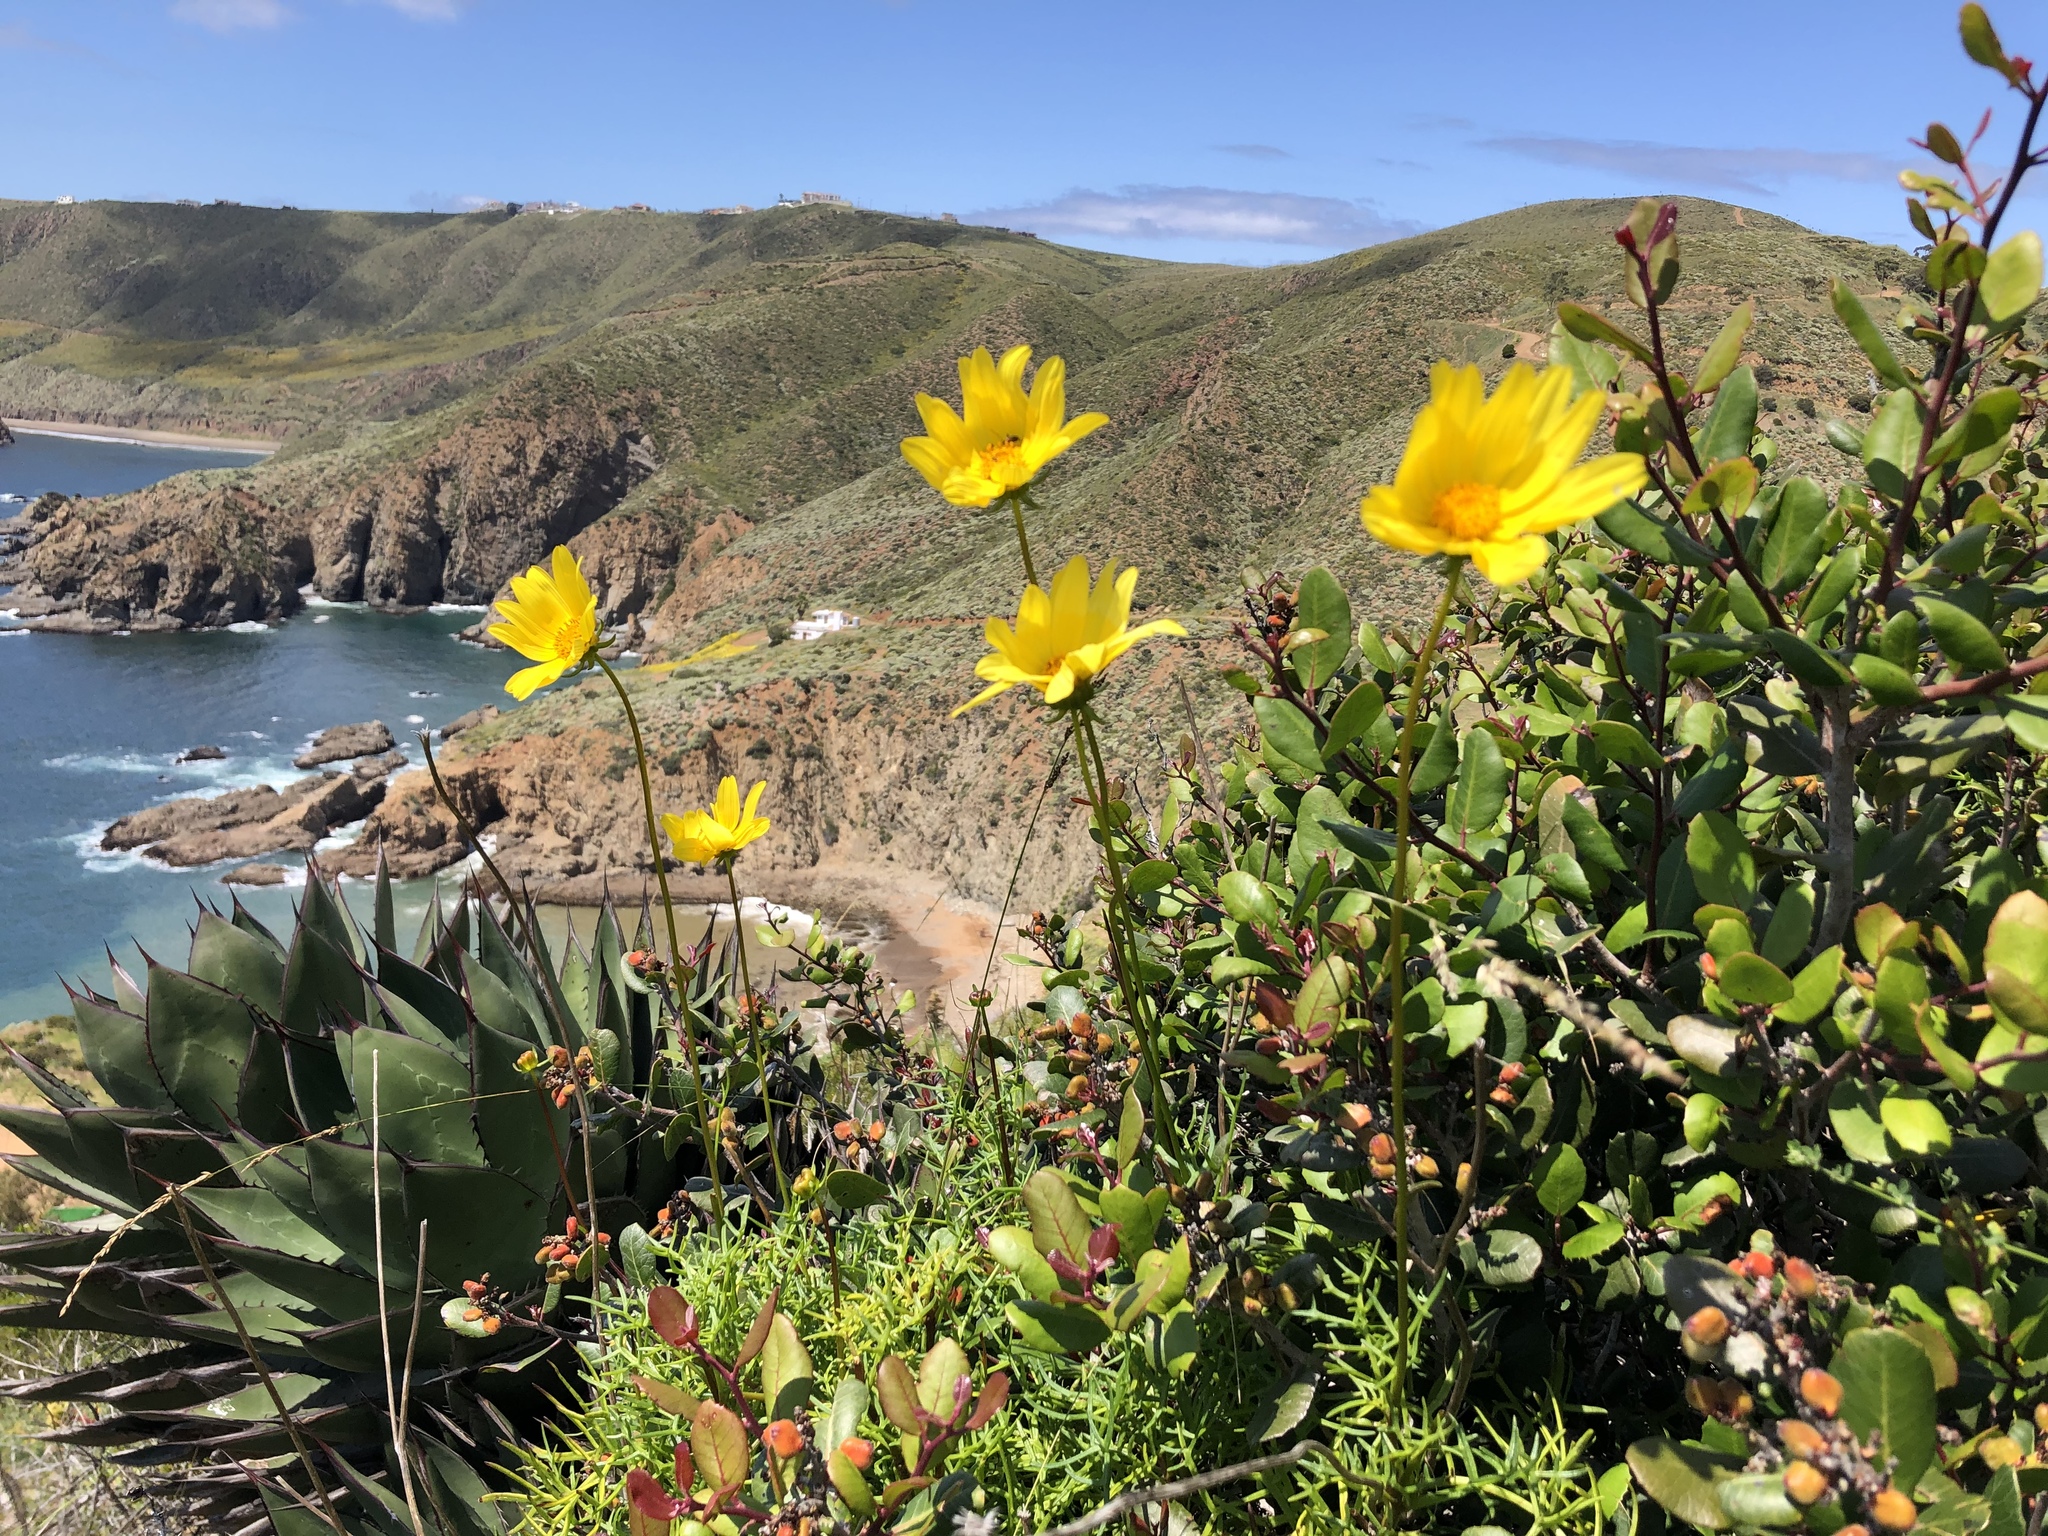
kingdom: Plantae
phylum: Tracheophyta
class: Magnoliopsida
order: Asterales
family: Asteraceae
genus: Coreopsis
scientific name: Coreopsis maritima
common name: Sea-dahlia
